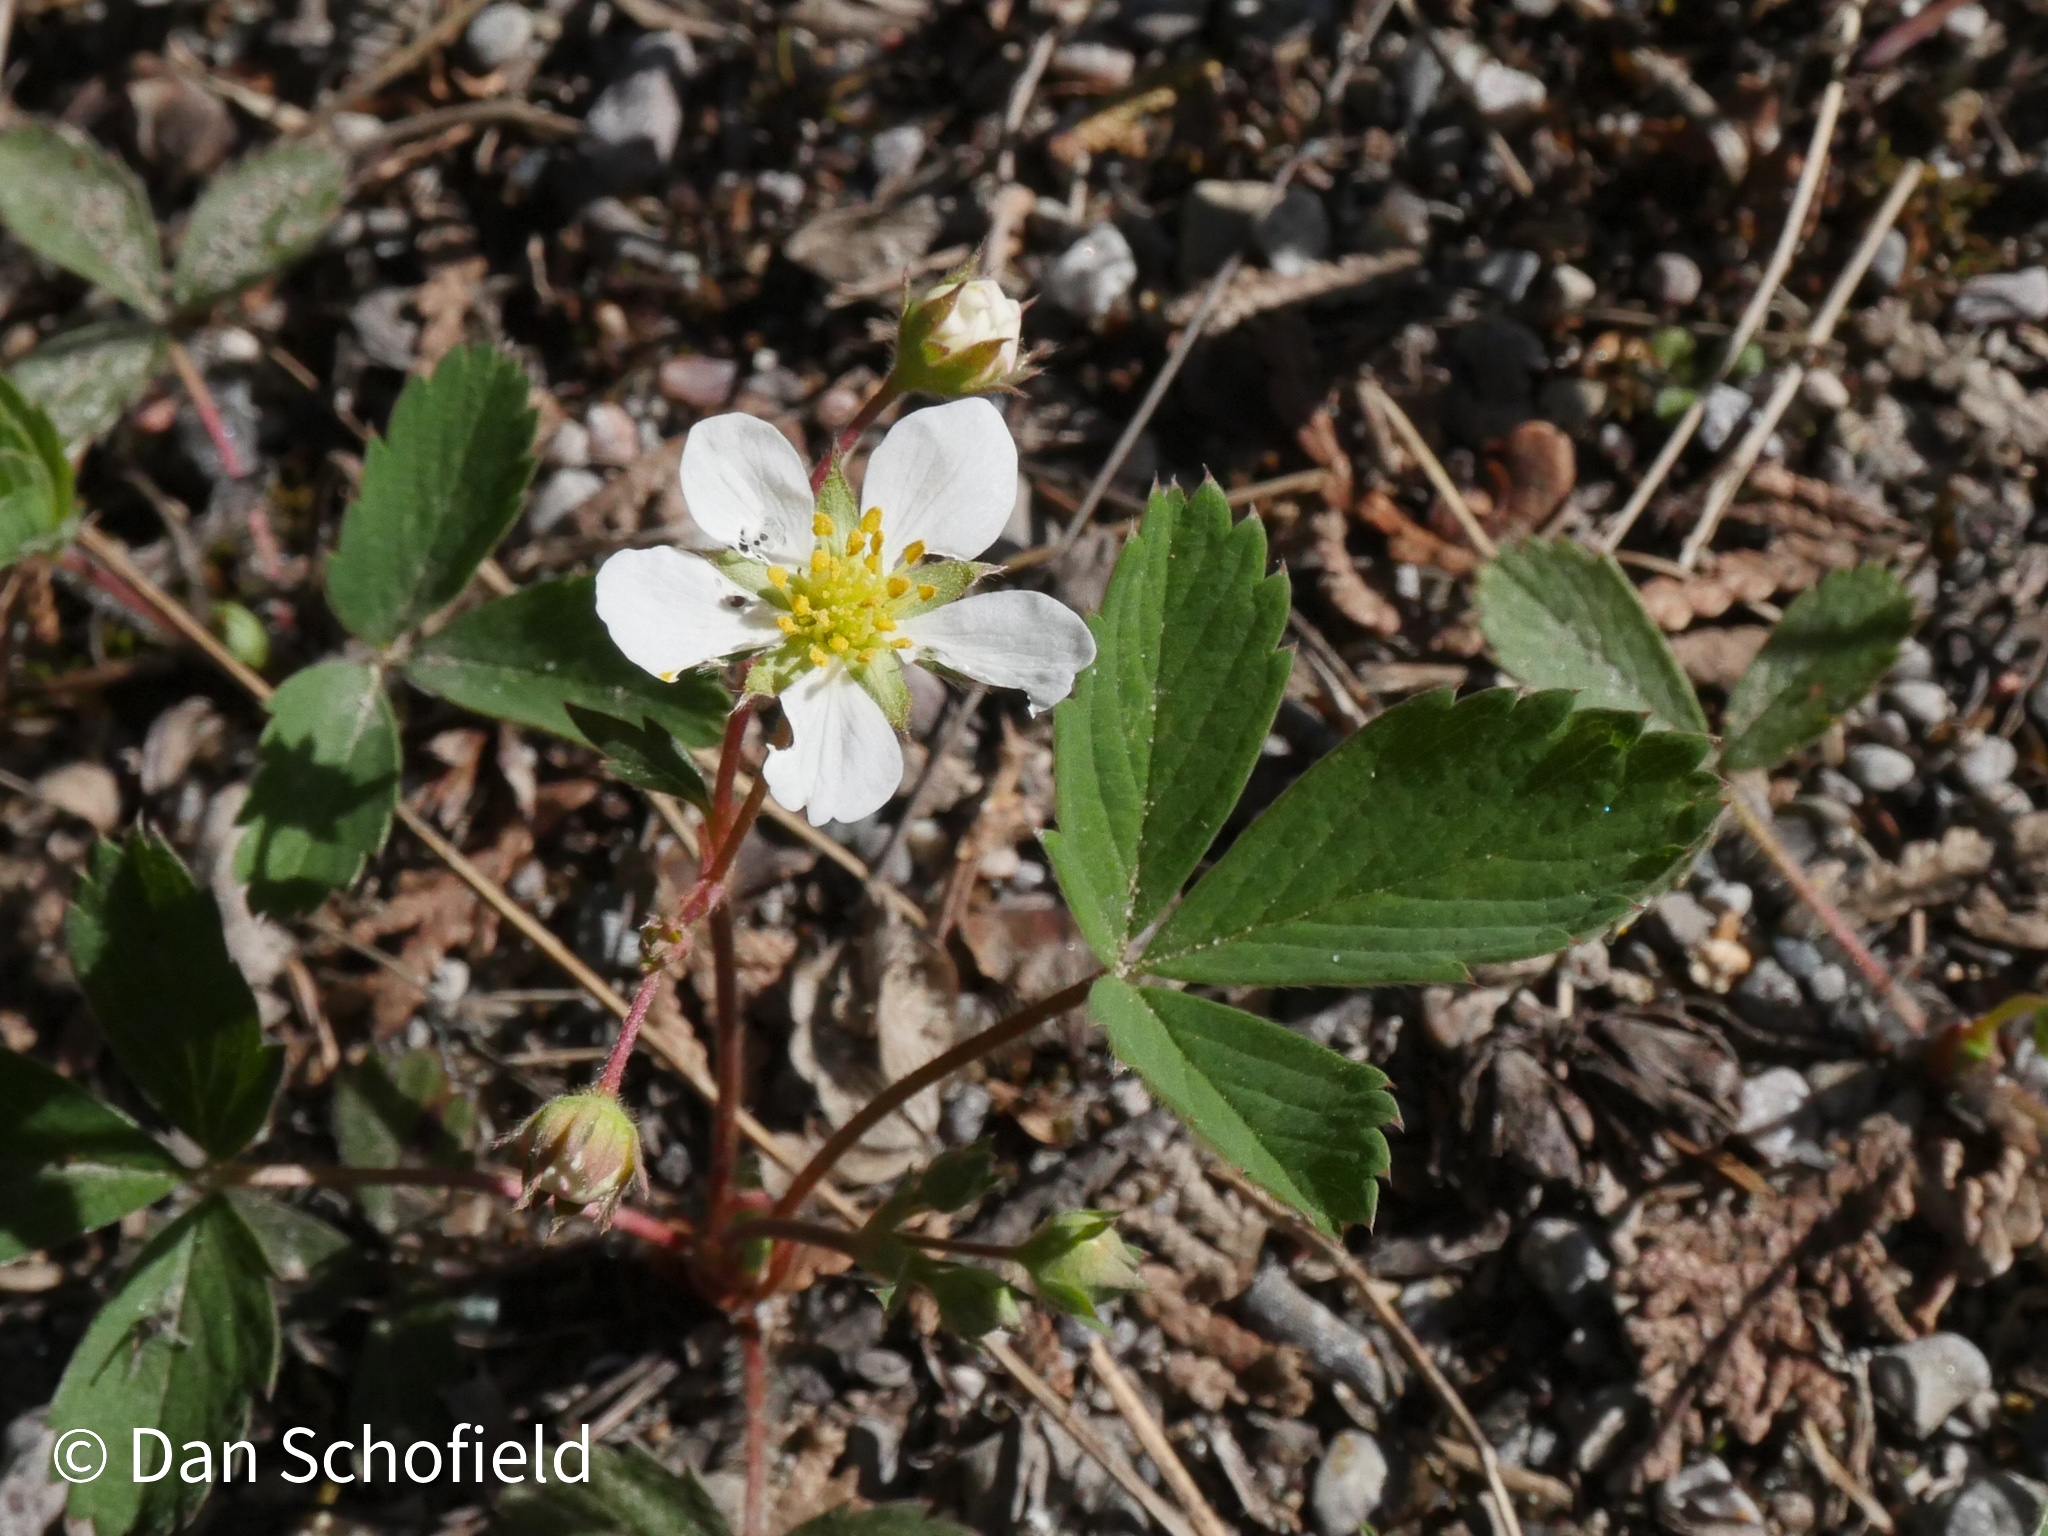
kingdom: Plantae
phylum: Tracheophyta
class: Magnoliopsida
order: Rosales
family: Rosaceae
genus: Fragaria
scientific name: Fragaria virginiana
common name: Thickleaved wild strawberry
